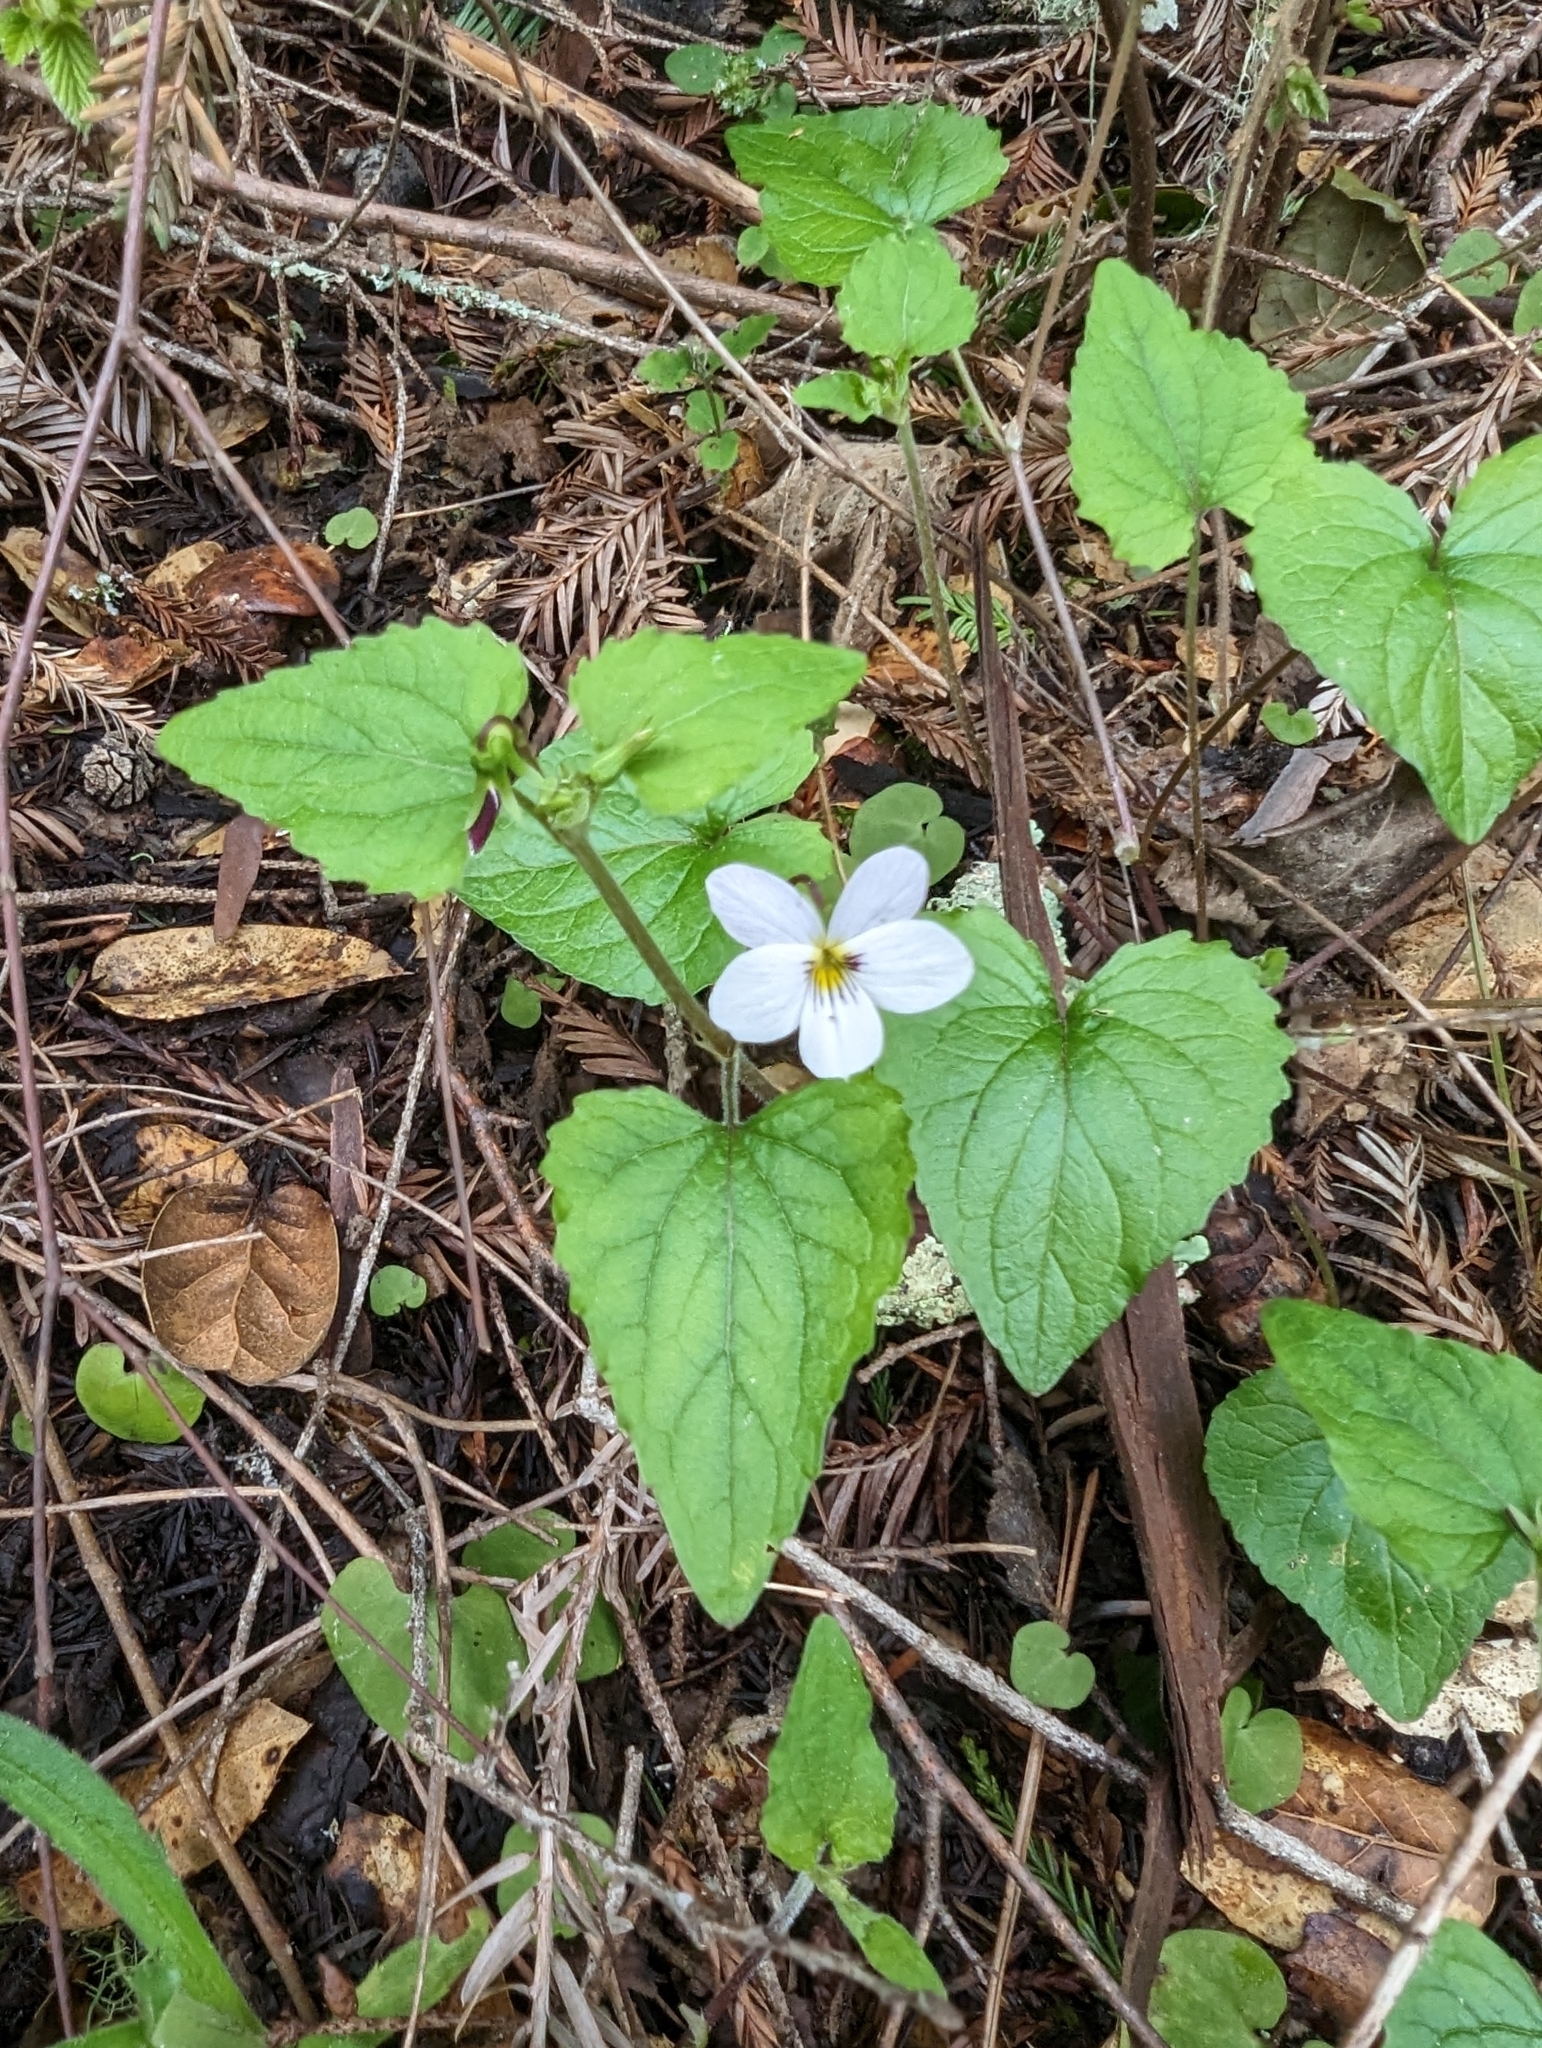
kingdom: Plantae
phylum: Tracheophyta
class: Magnoliopsida
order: Malpighiales
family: Violaceae
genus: Viola
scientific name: Viola ocellata
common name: Western heart's ease
